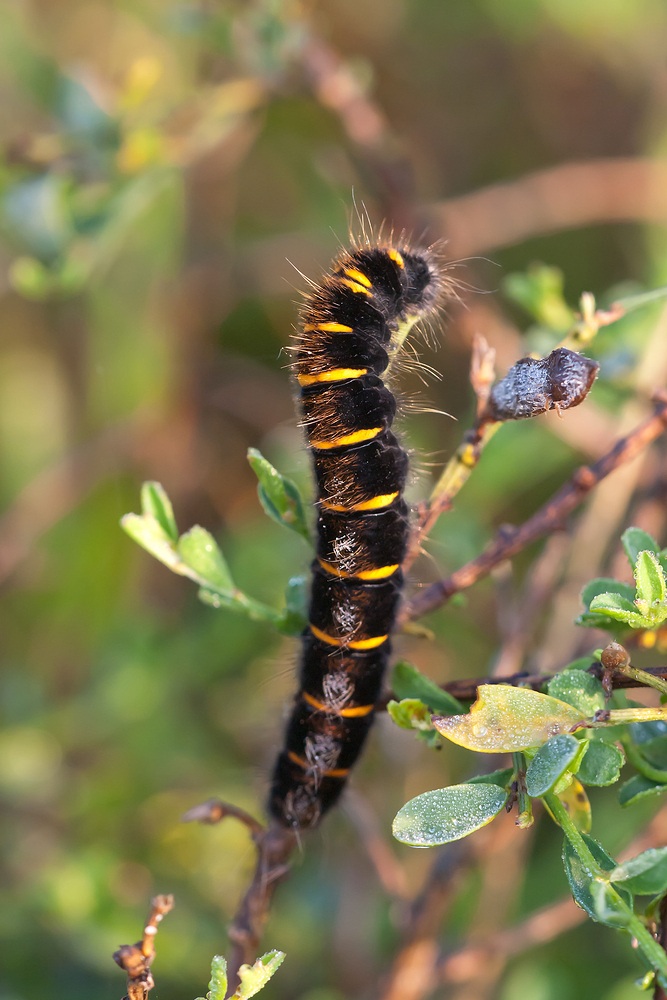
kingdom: Animalia
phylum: Arthropoda
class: Insecta
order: Lepidoptera
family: Lasiocampidae
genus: Macrothylacia
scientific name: Macrothylacia rubi
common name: Fox moth
